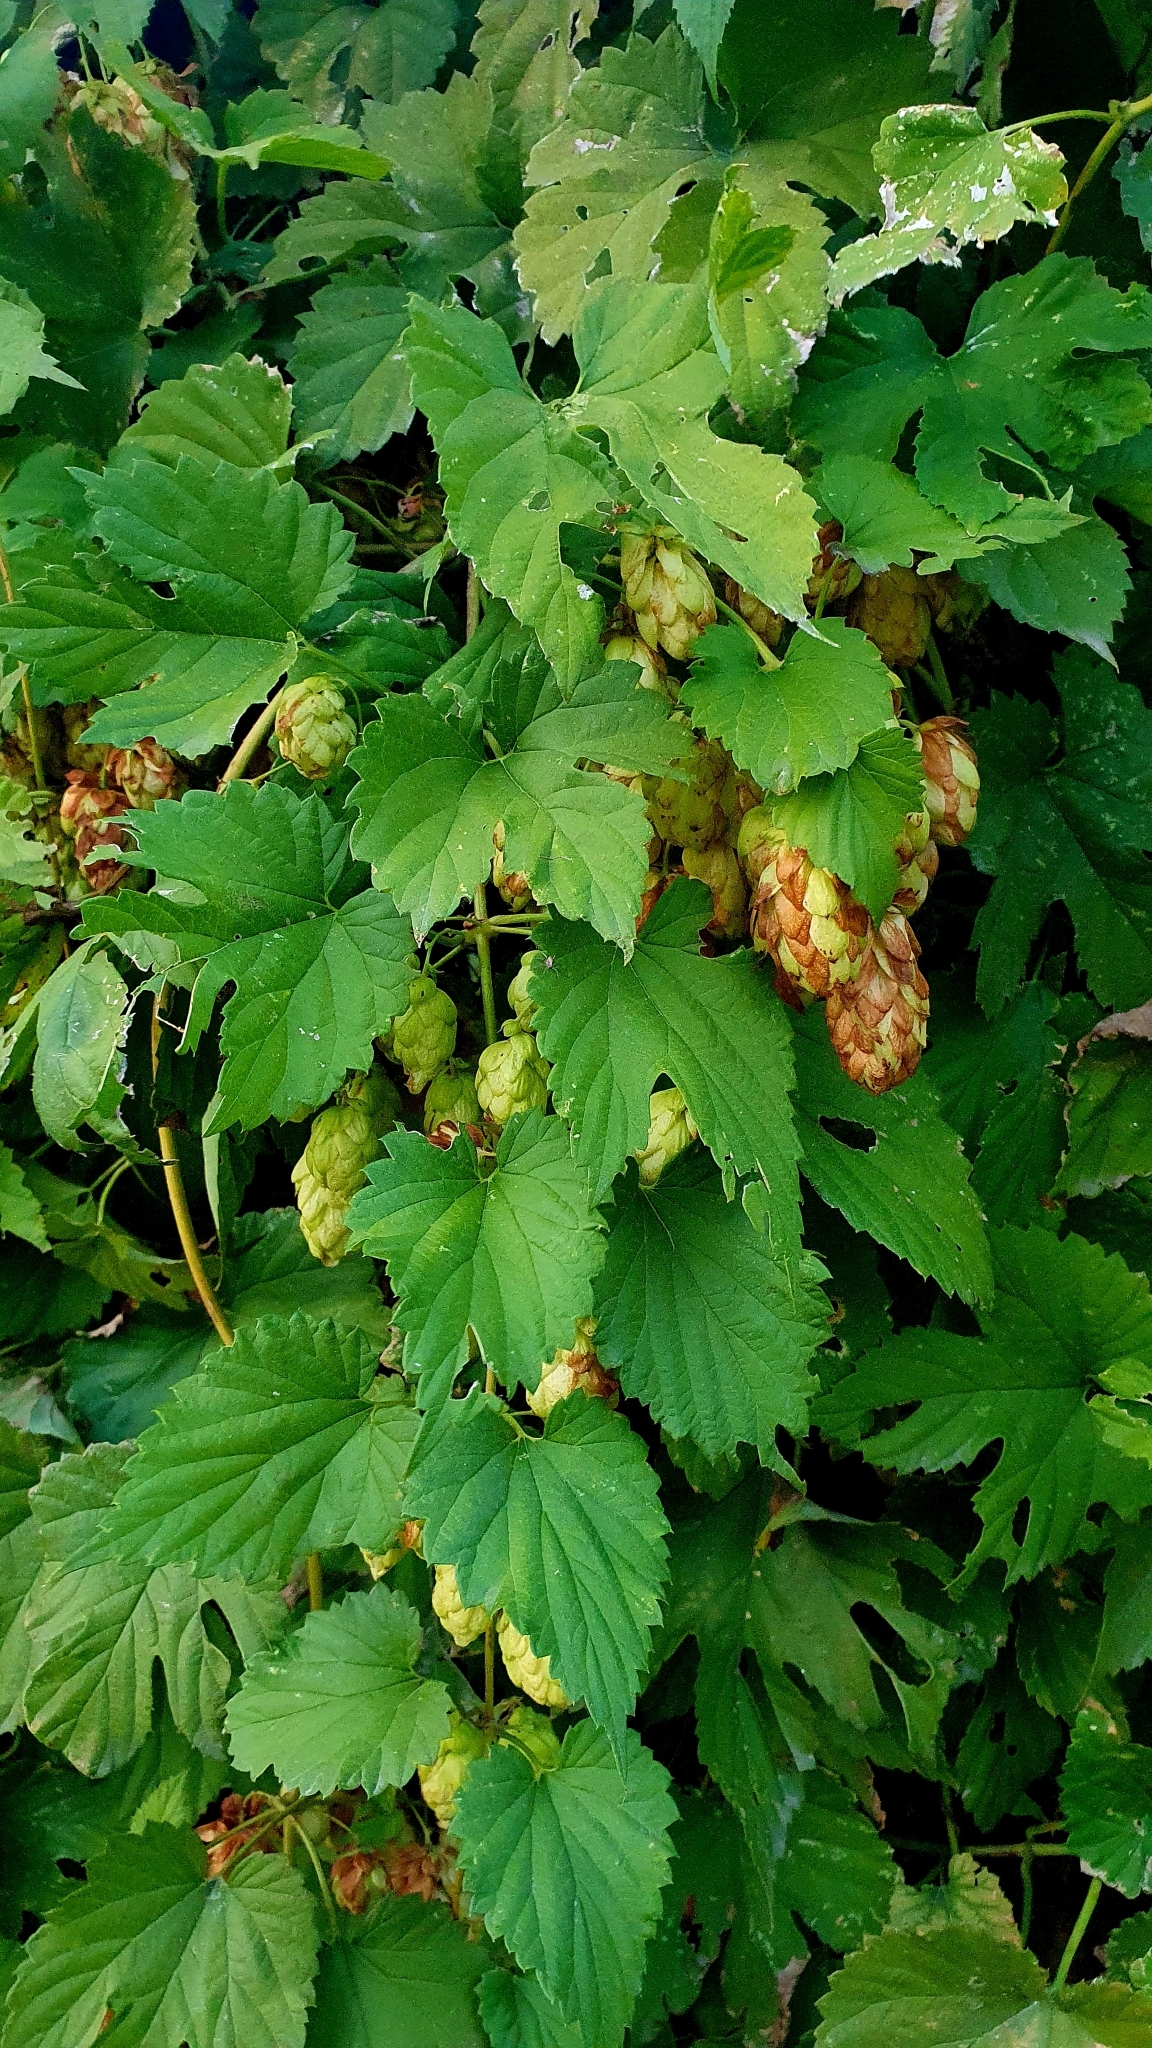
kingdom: Plantae
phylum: Tracheophyta
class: Magnoliopsida
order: Rosales
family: Cannabaceae
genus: Humulus
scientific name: Humulus lupulus
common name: Hop
